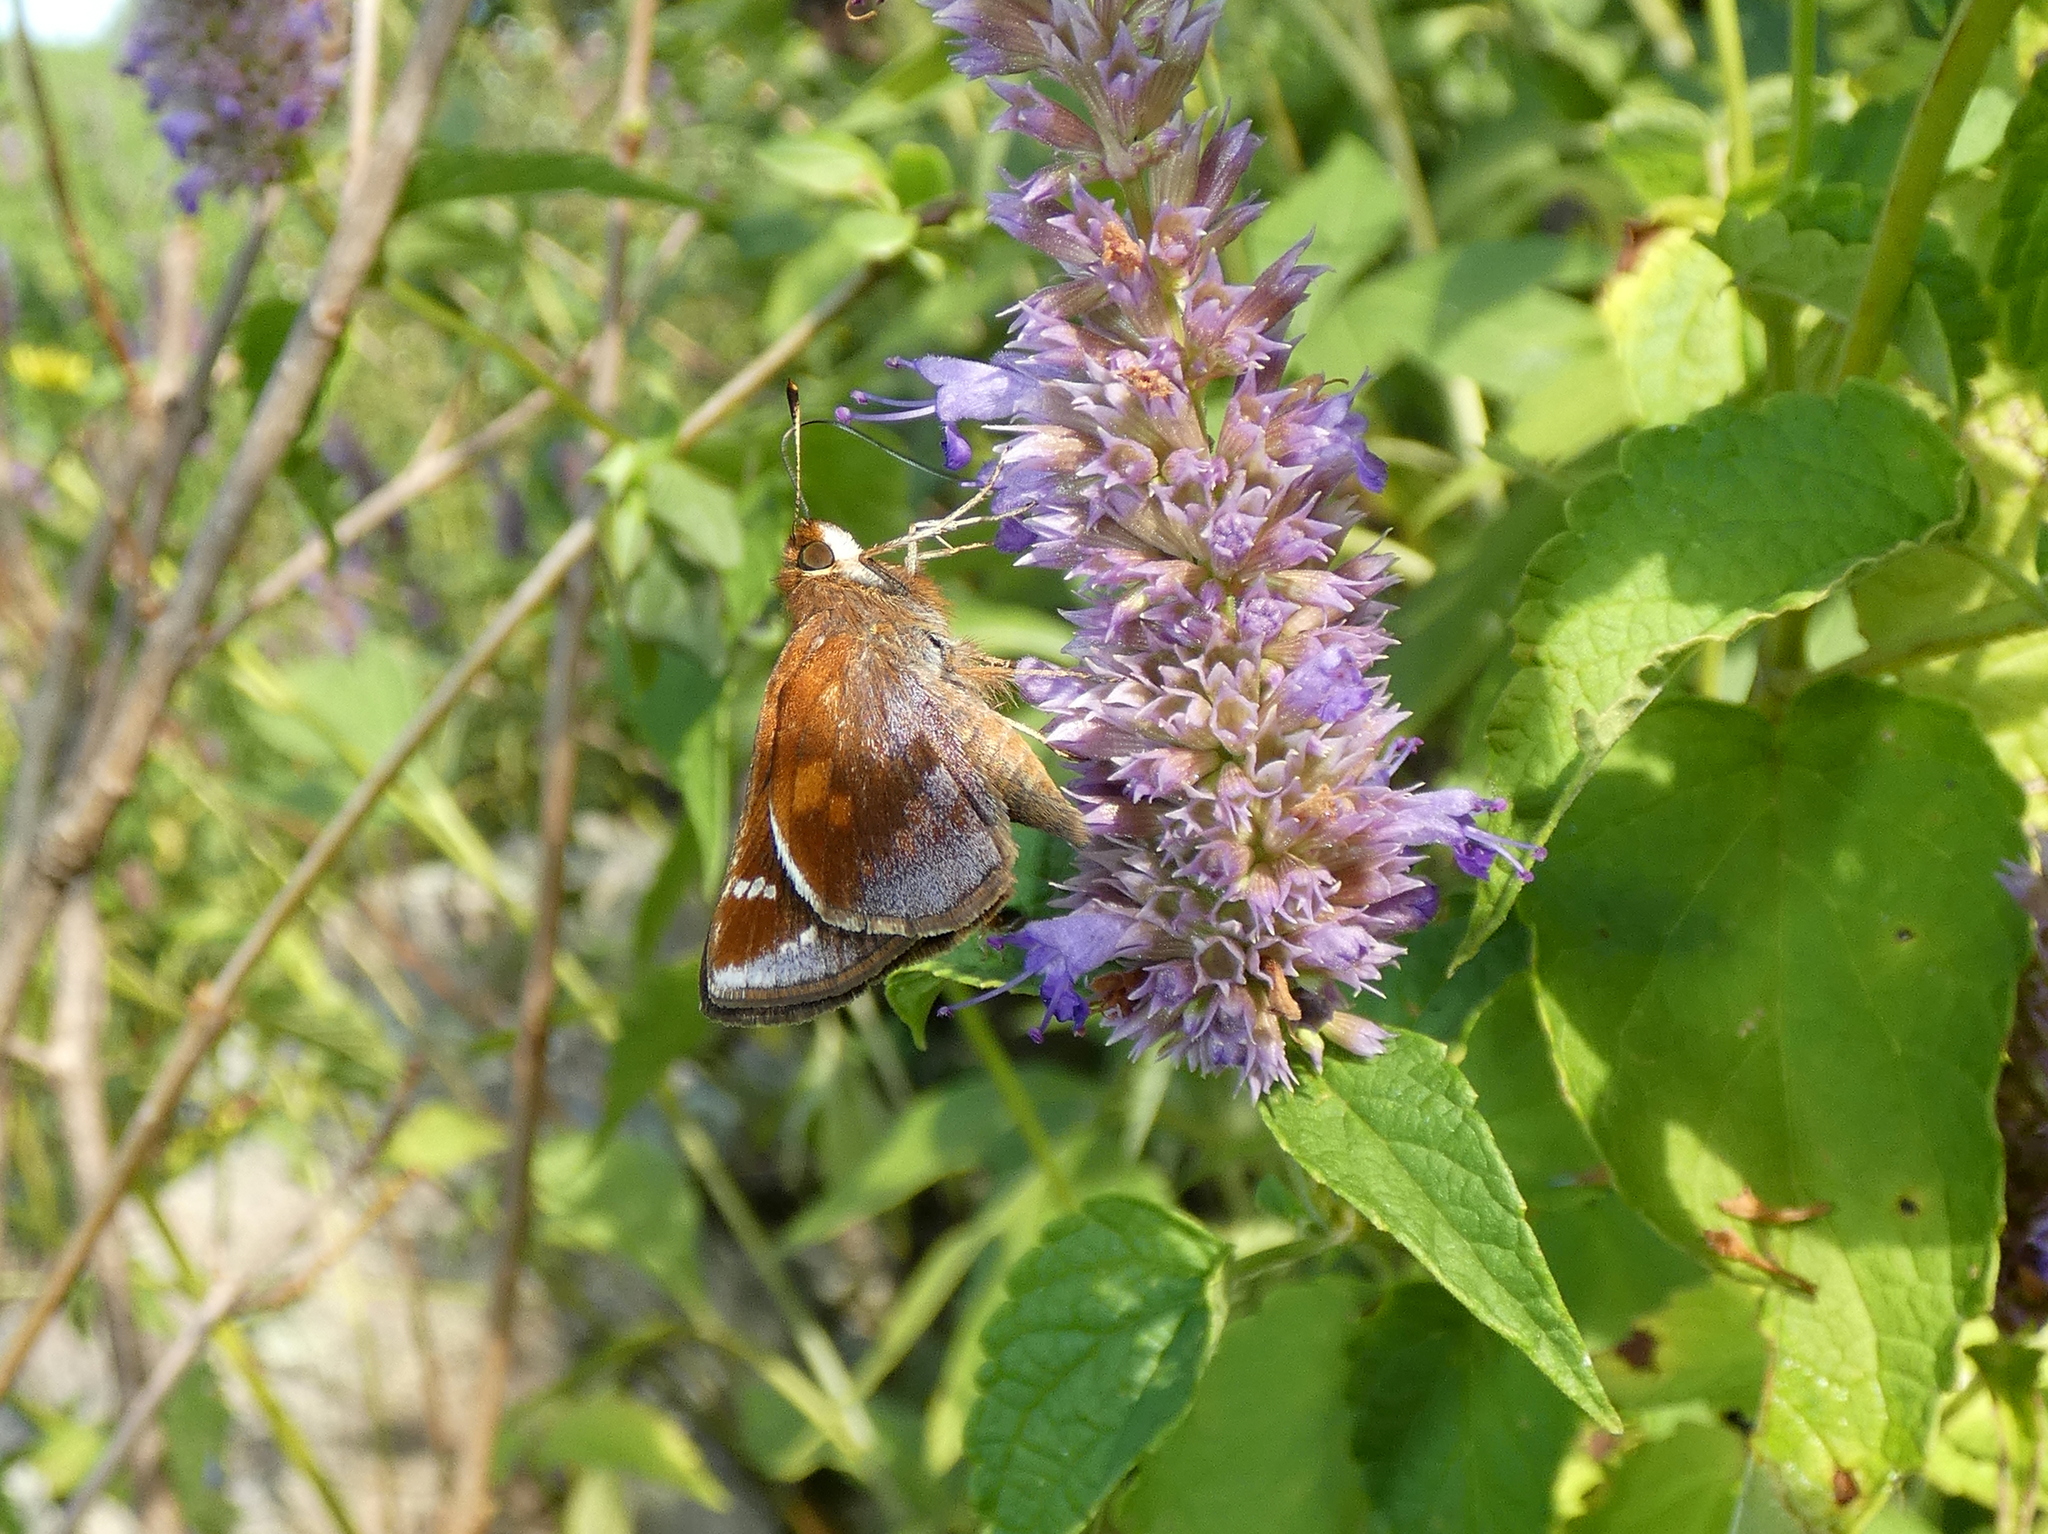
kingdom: Animalia
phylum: Arthropoda
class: Insecta
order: Lepidoptera
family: Hesperiidae
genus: Lon
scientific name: Lon zabulon
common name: Zabulon skipper
